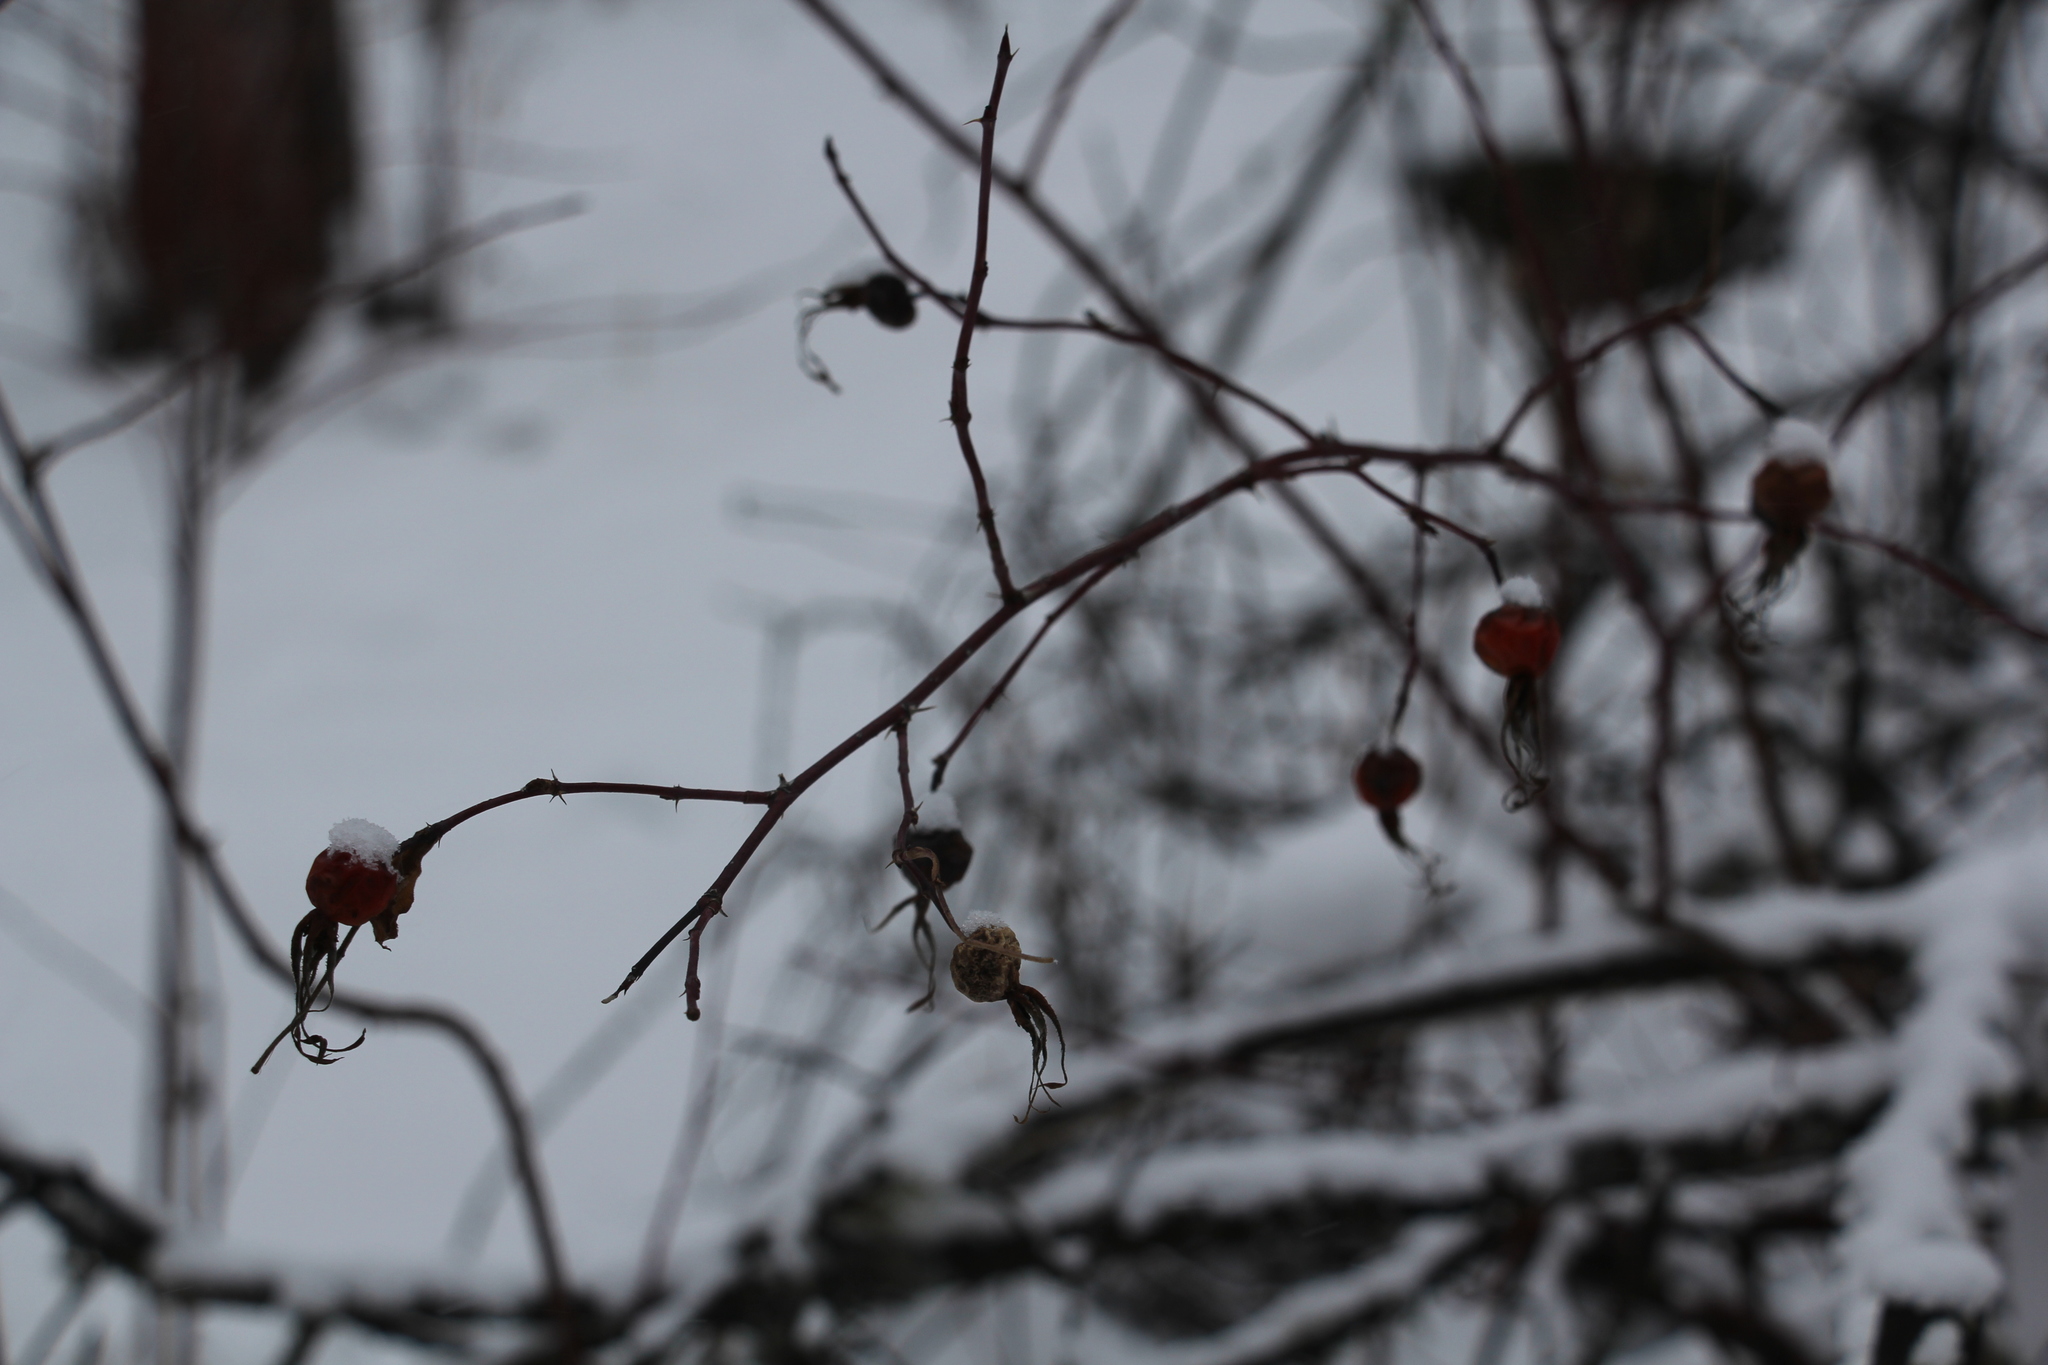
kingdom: Plantae
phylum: Tracheophyta
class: Magnoliopsida
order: Rosales
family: Rosaceae
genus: Rosa
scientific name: Rosa majalis
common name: Cinnamon rose
